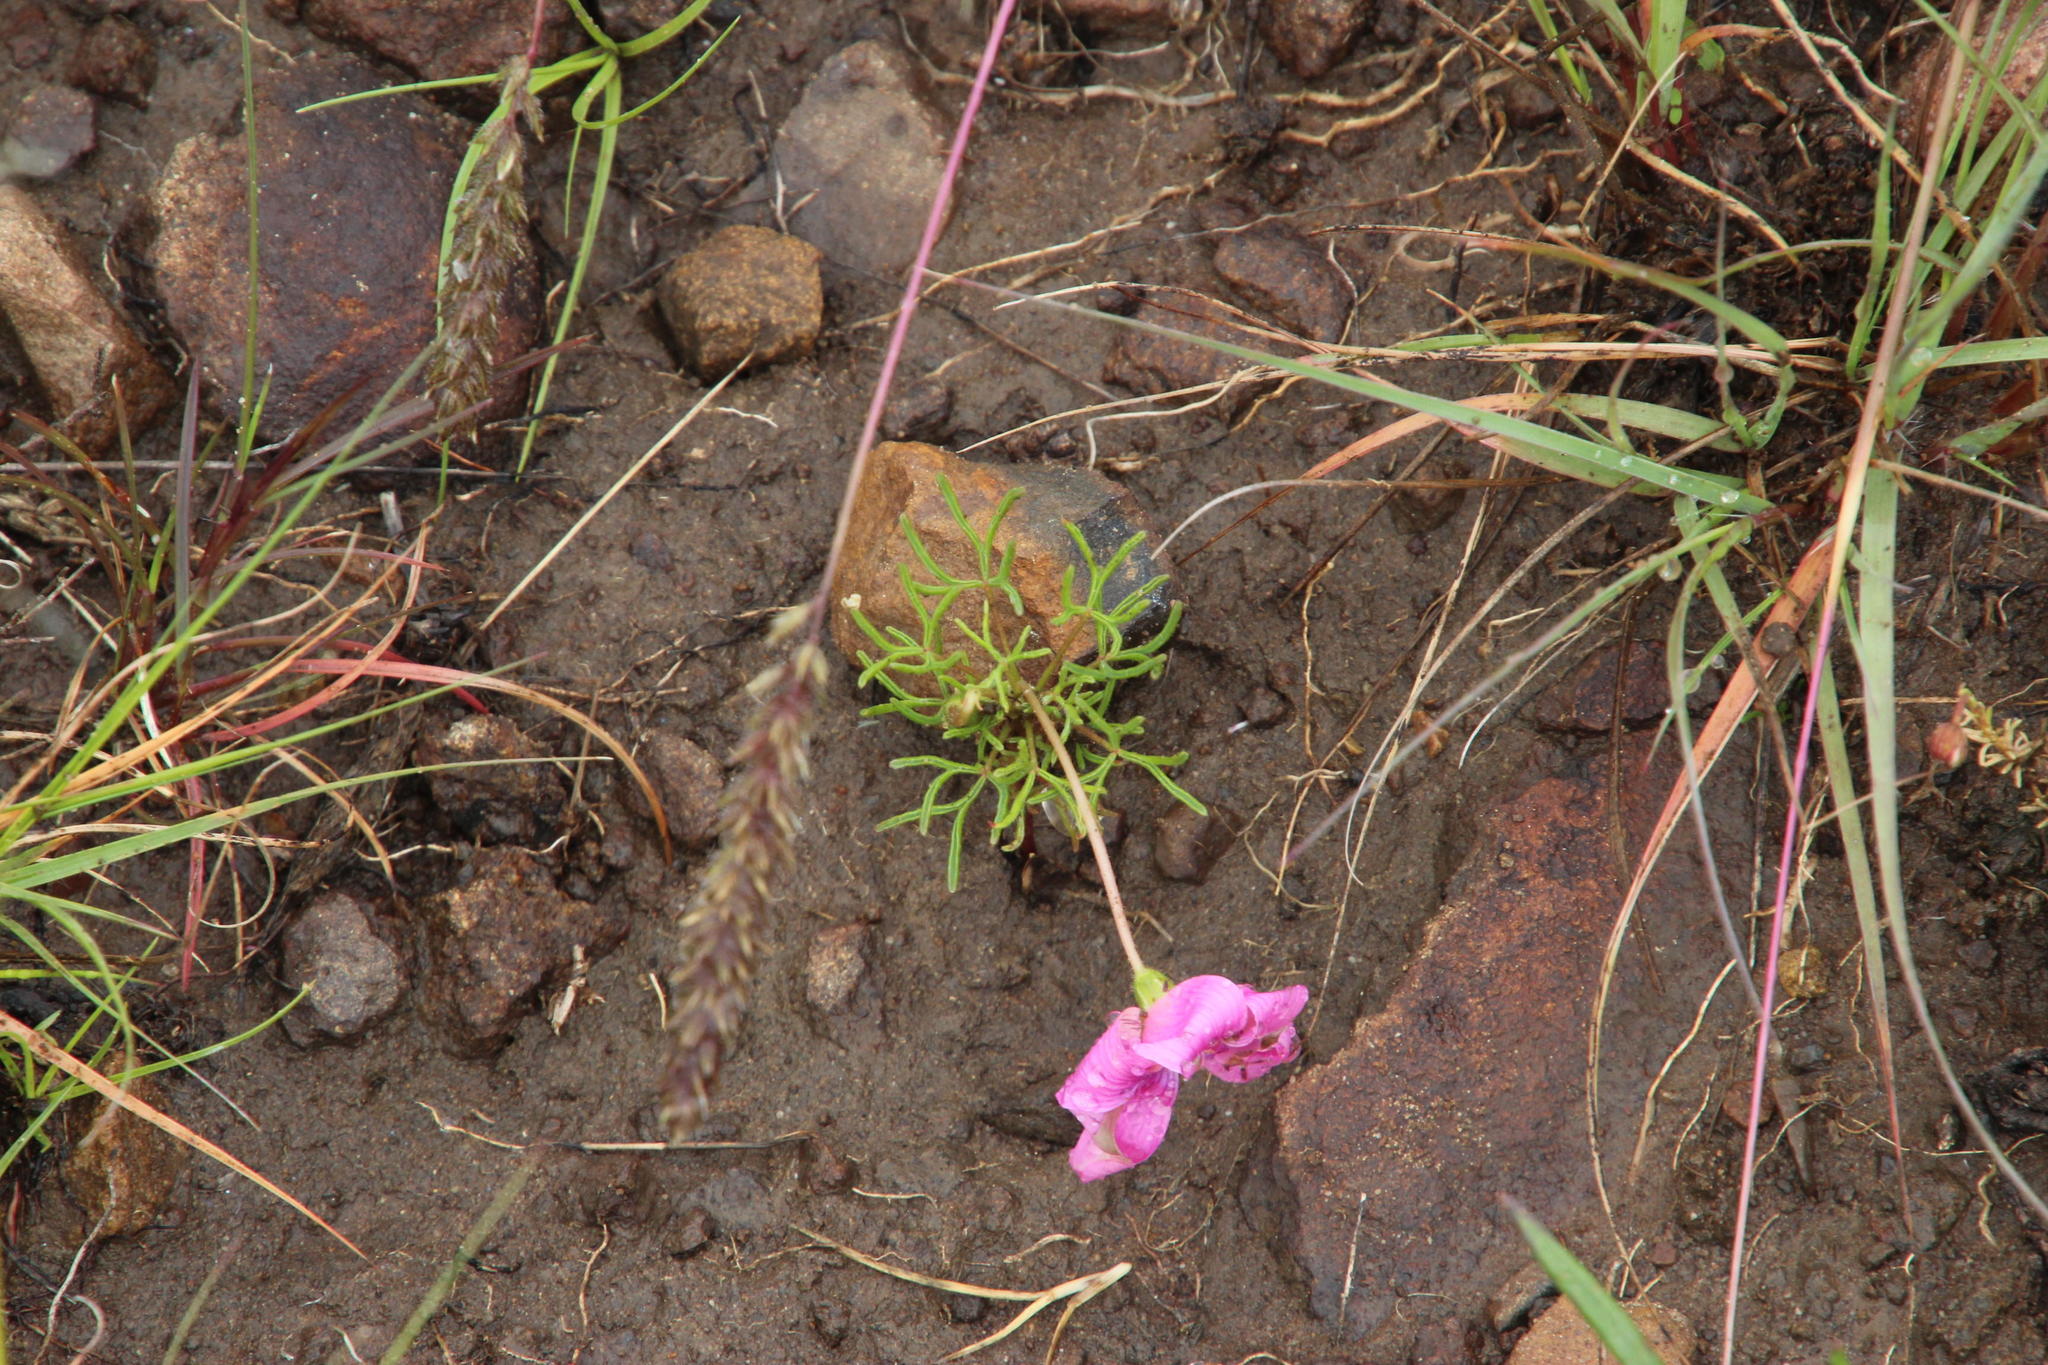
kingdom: Plantae
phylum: Tracheophyta
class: Magnoliopsida
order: Oxalidales
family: Oxalidaceae
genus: Oxalis
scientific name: Oxalis bifurca
